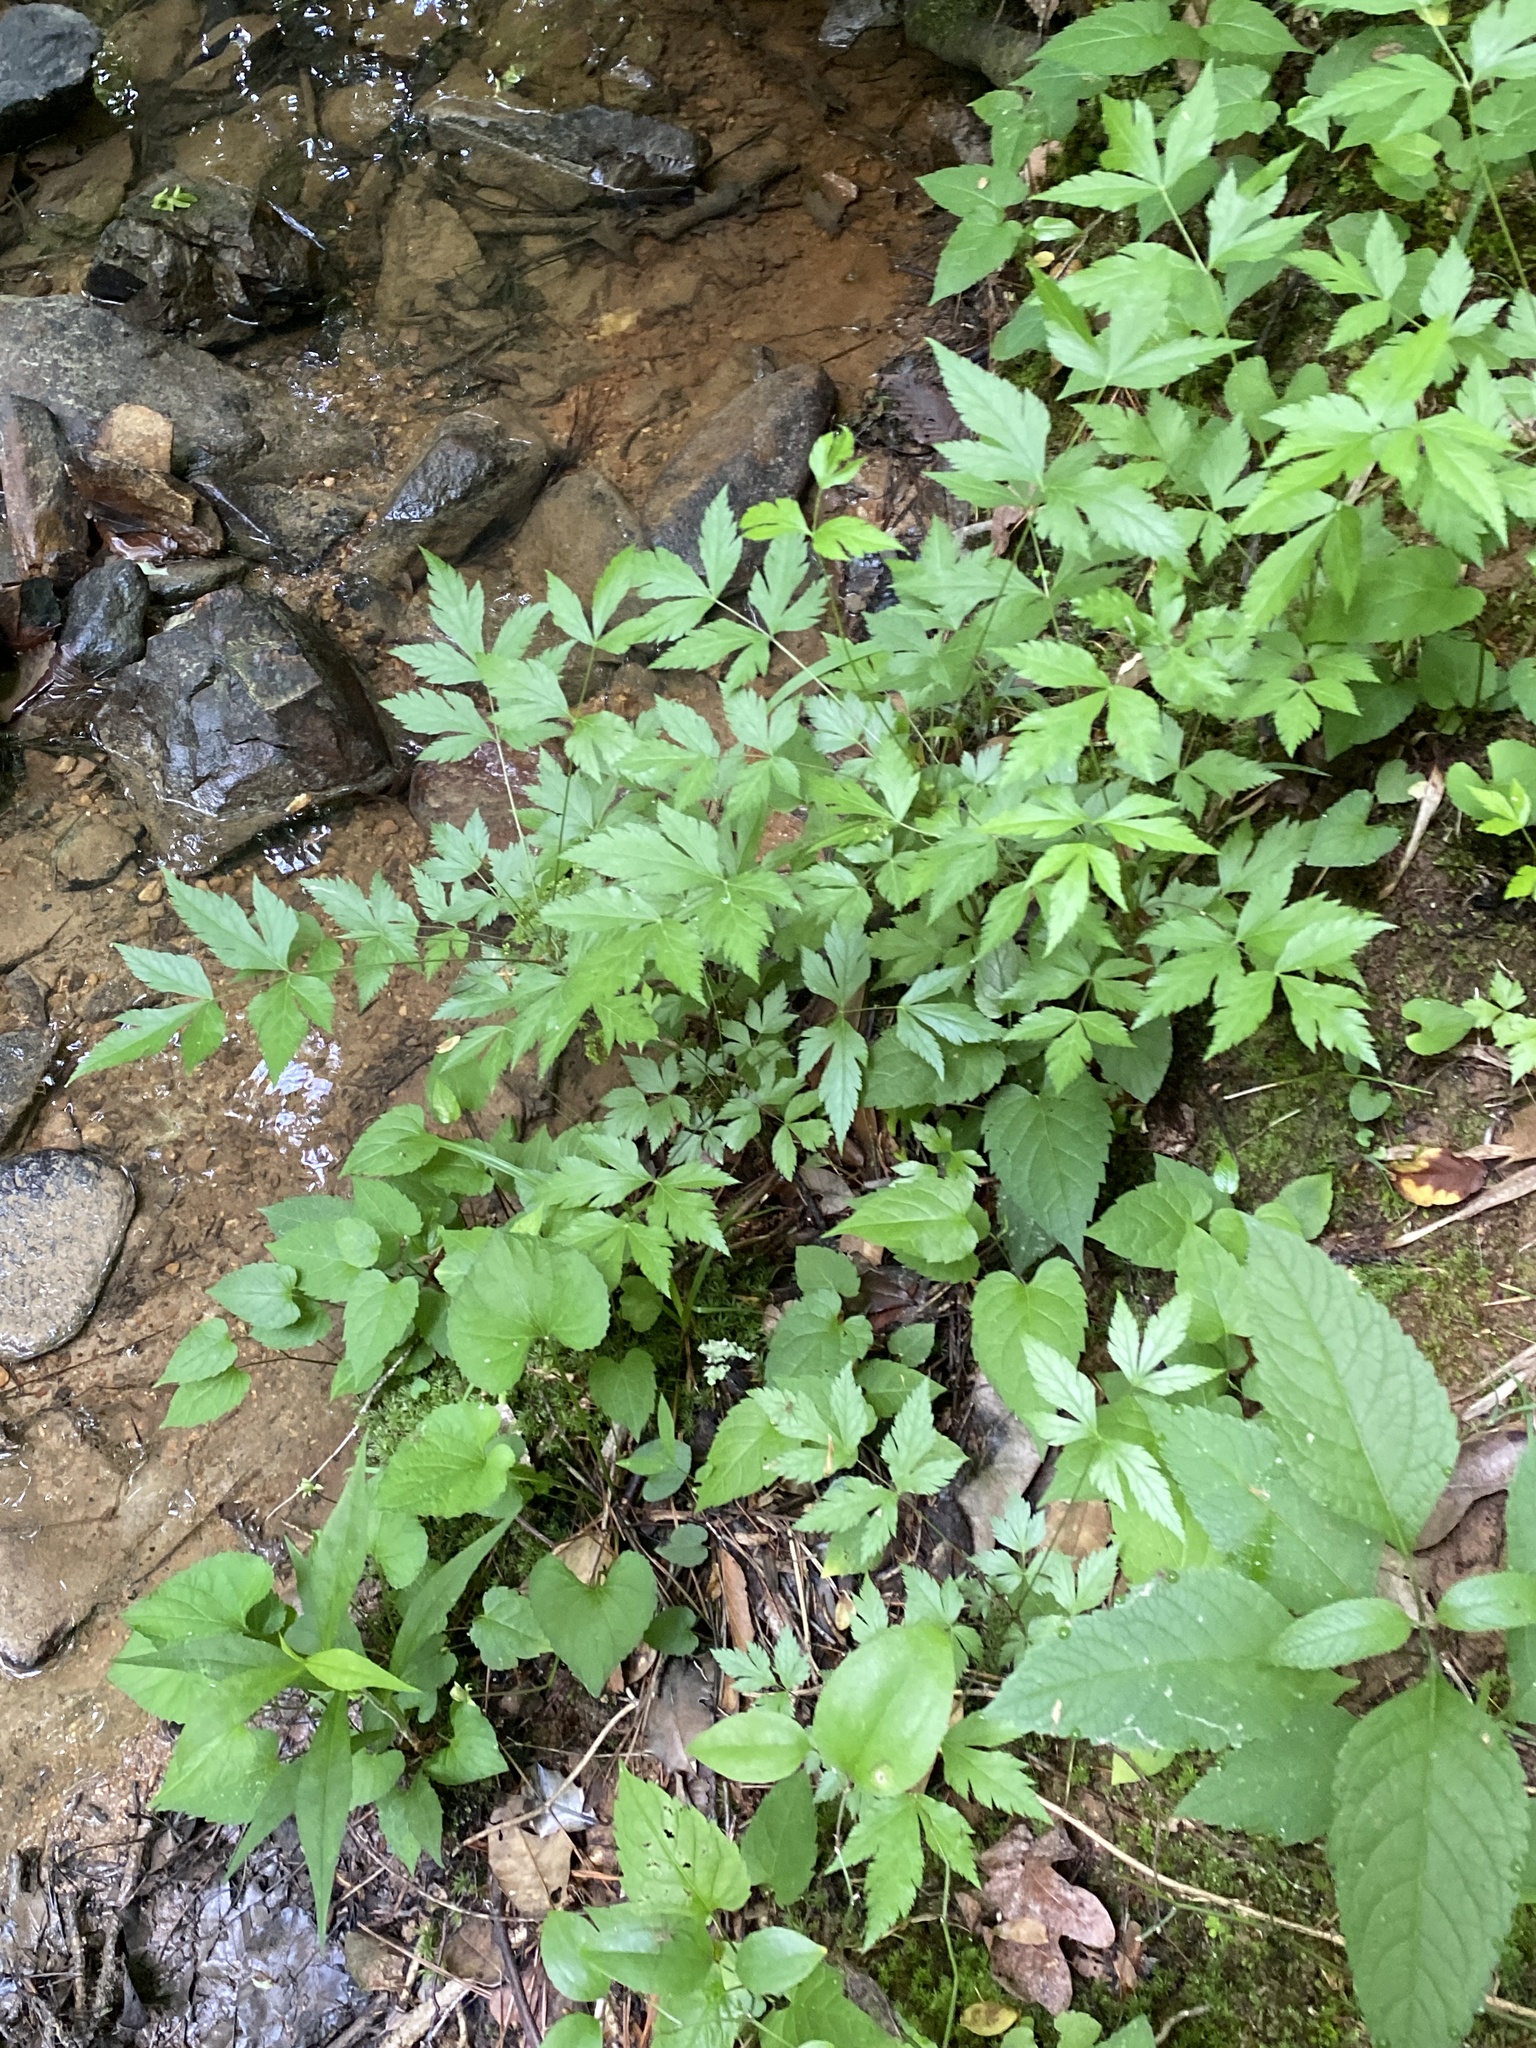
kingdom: Plantae
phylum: Tracheophyta
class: Magnoliopsida
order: Ranunculales
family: Ranunculaceae
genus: Xanthorhiza
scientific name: Xanthorhiza simplicissima
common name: Yellowroot
